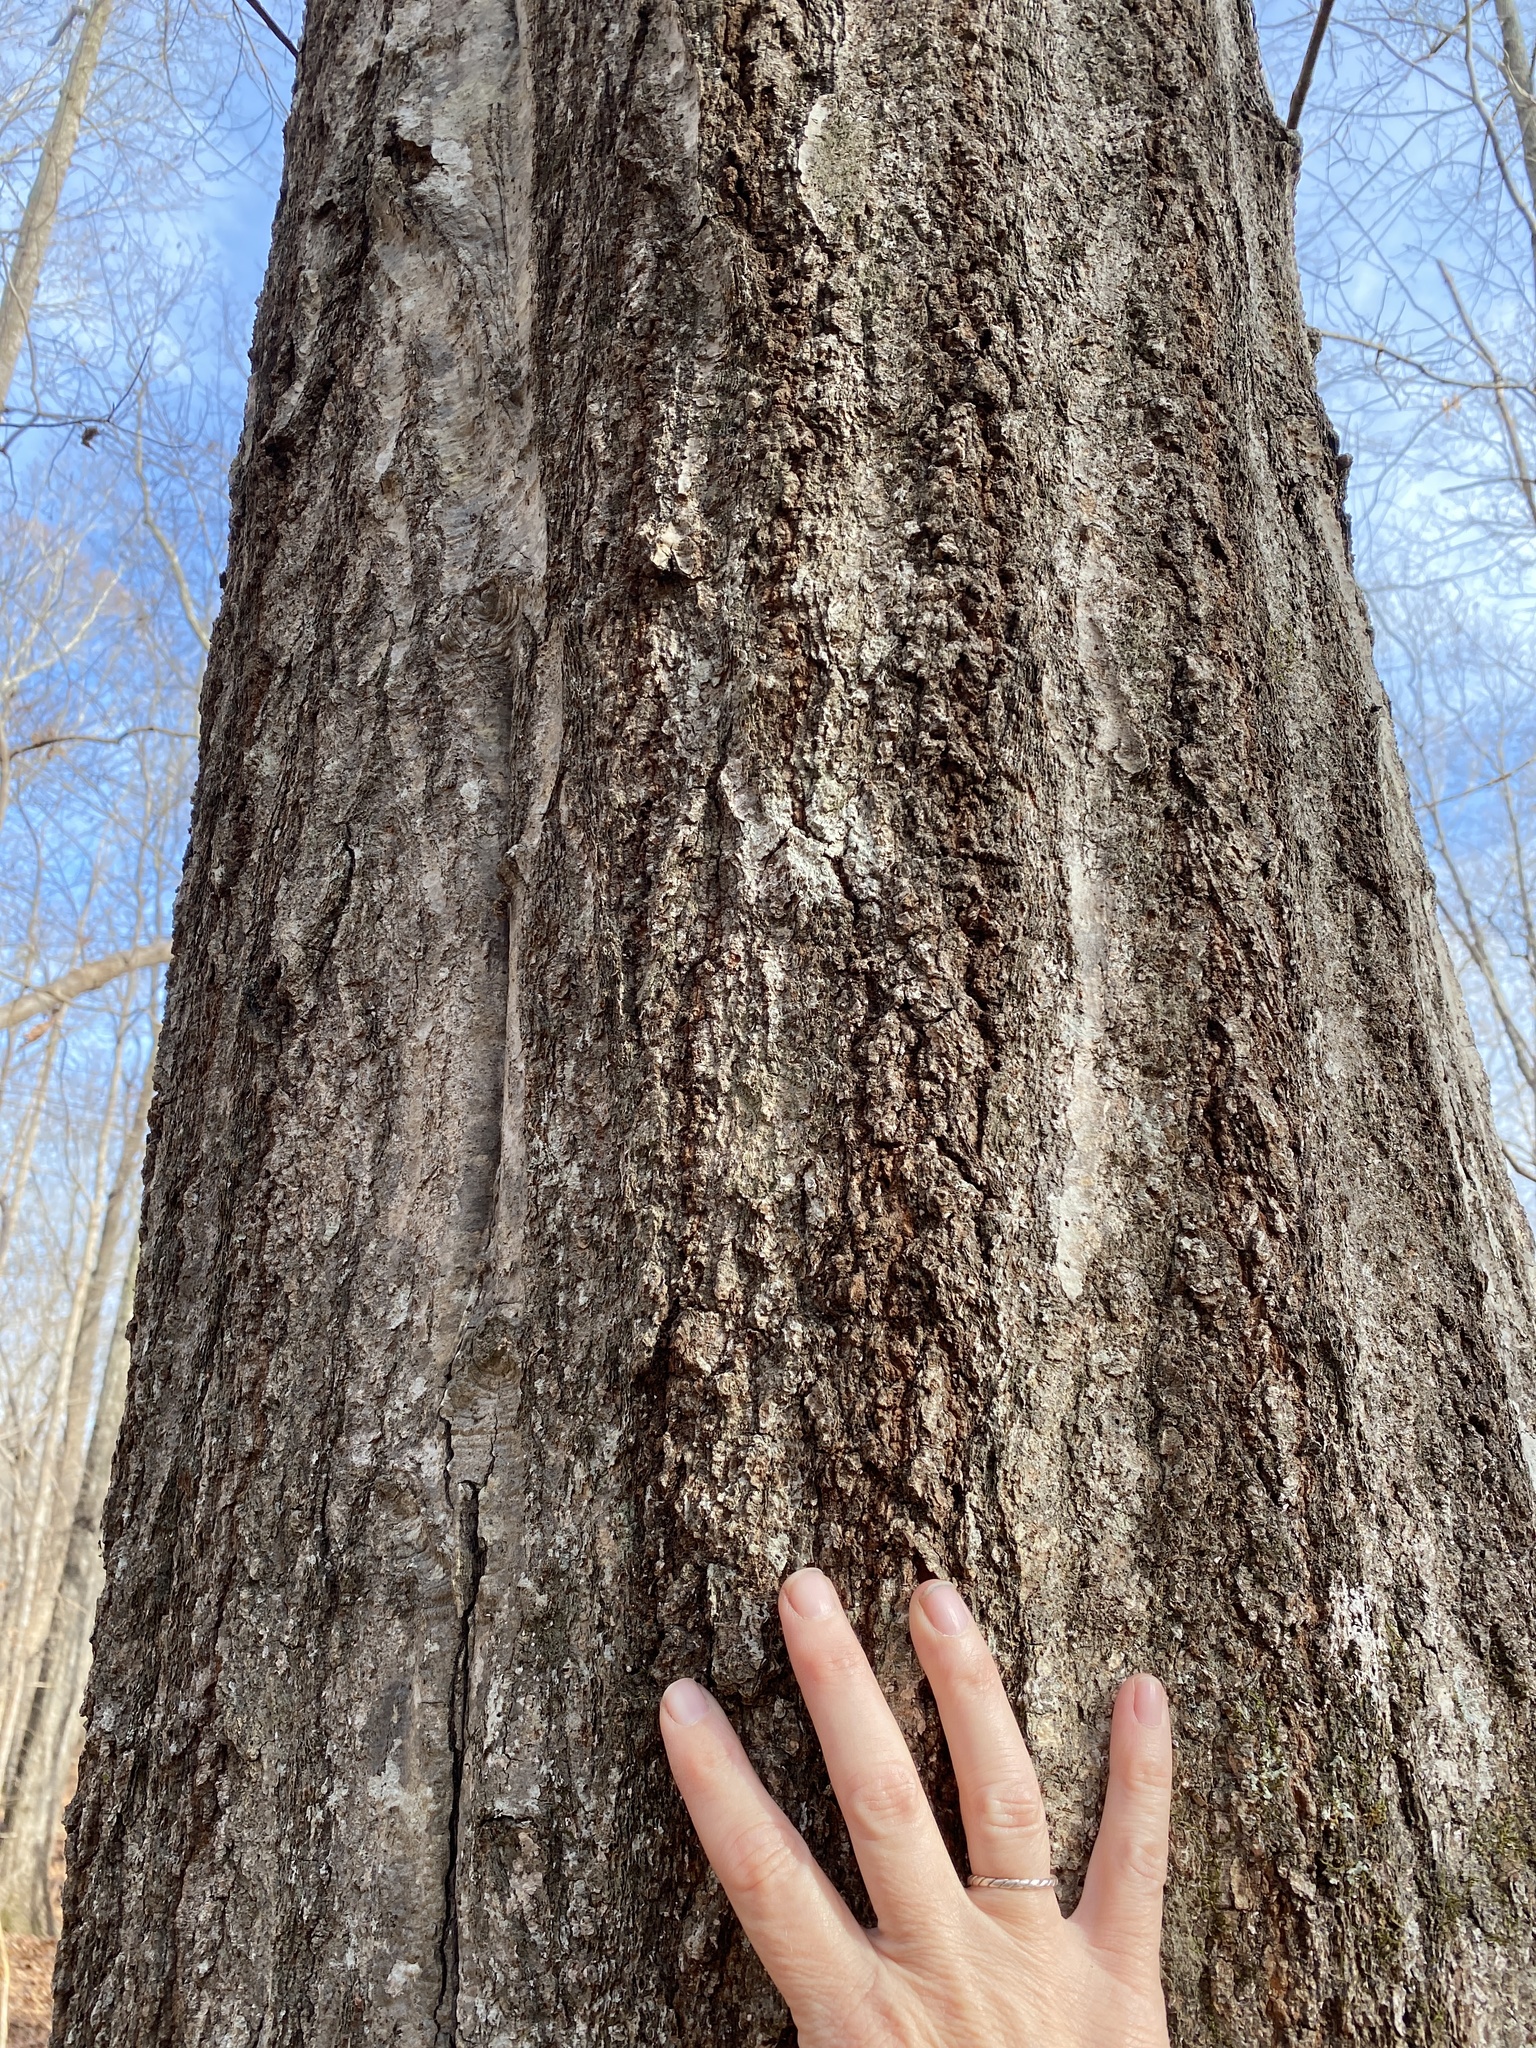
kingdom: Plantae
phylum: Tracheophyta
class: Magnoliopsida
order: Fagales
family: Fagaceae
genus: Quercus
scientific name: Quercus rubra
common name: Red oak
